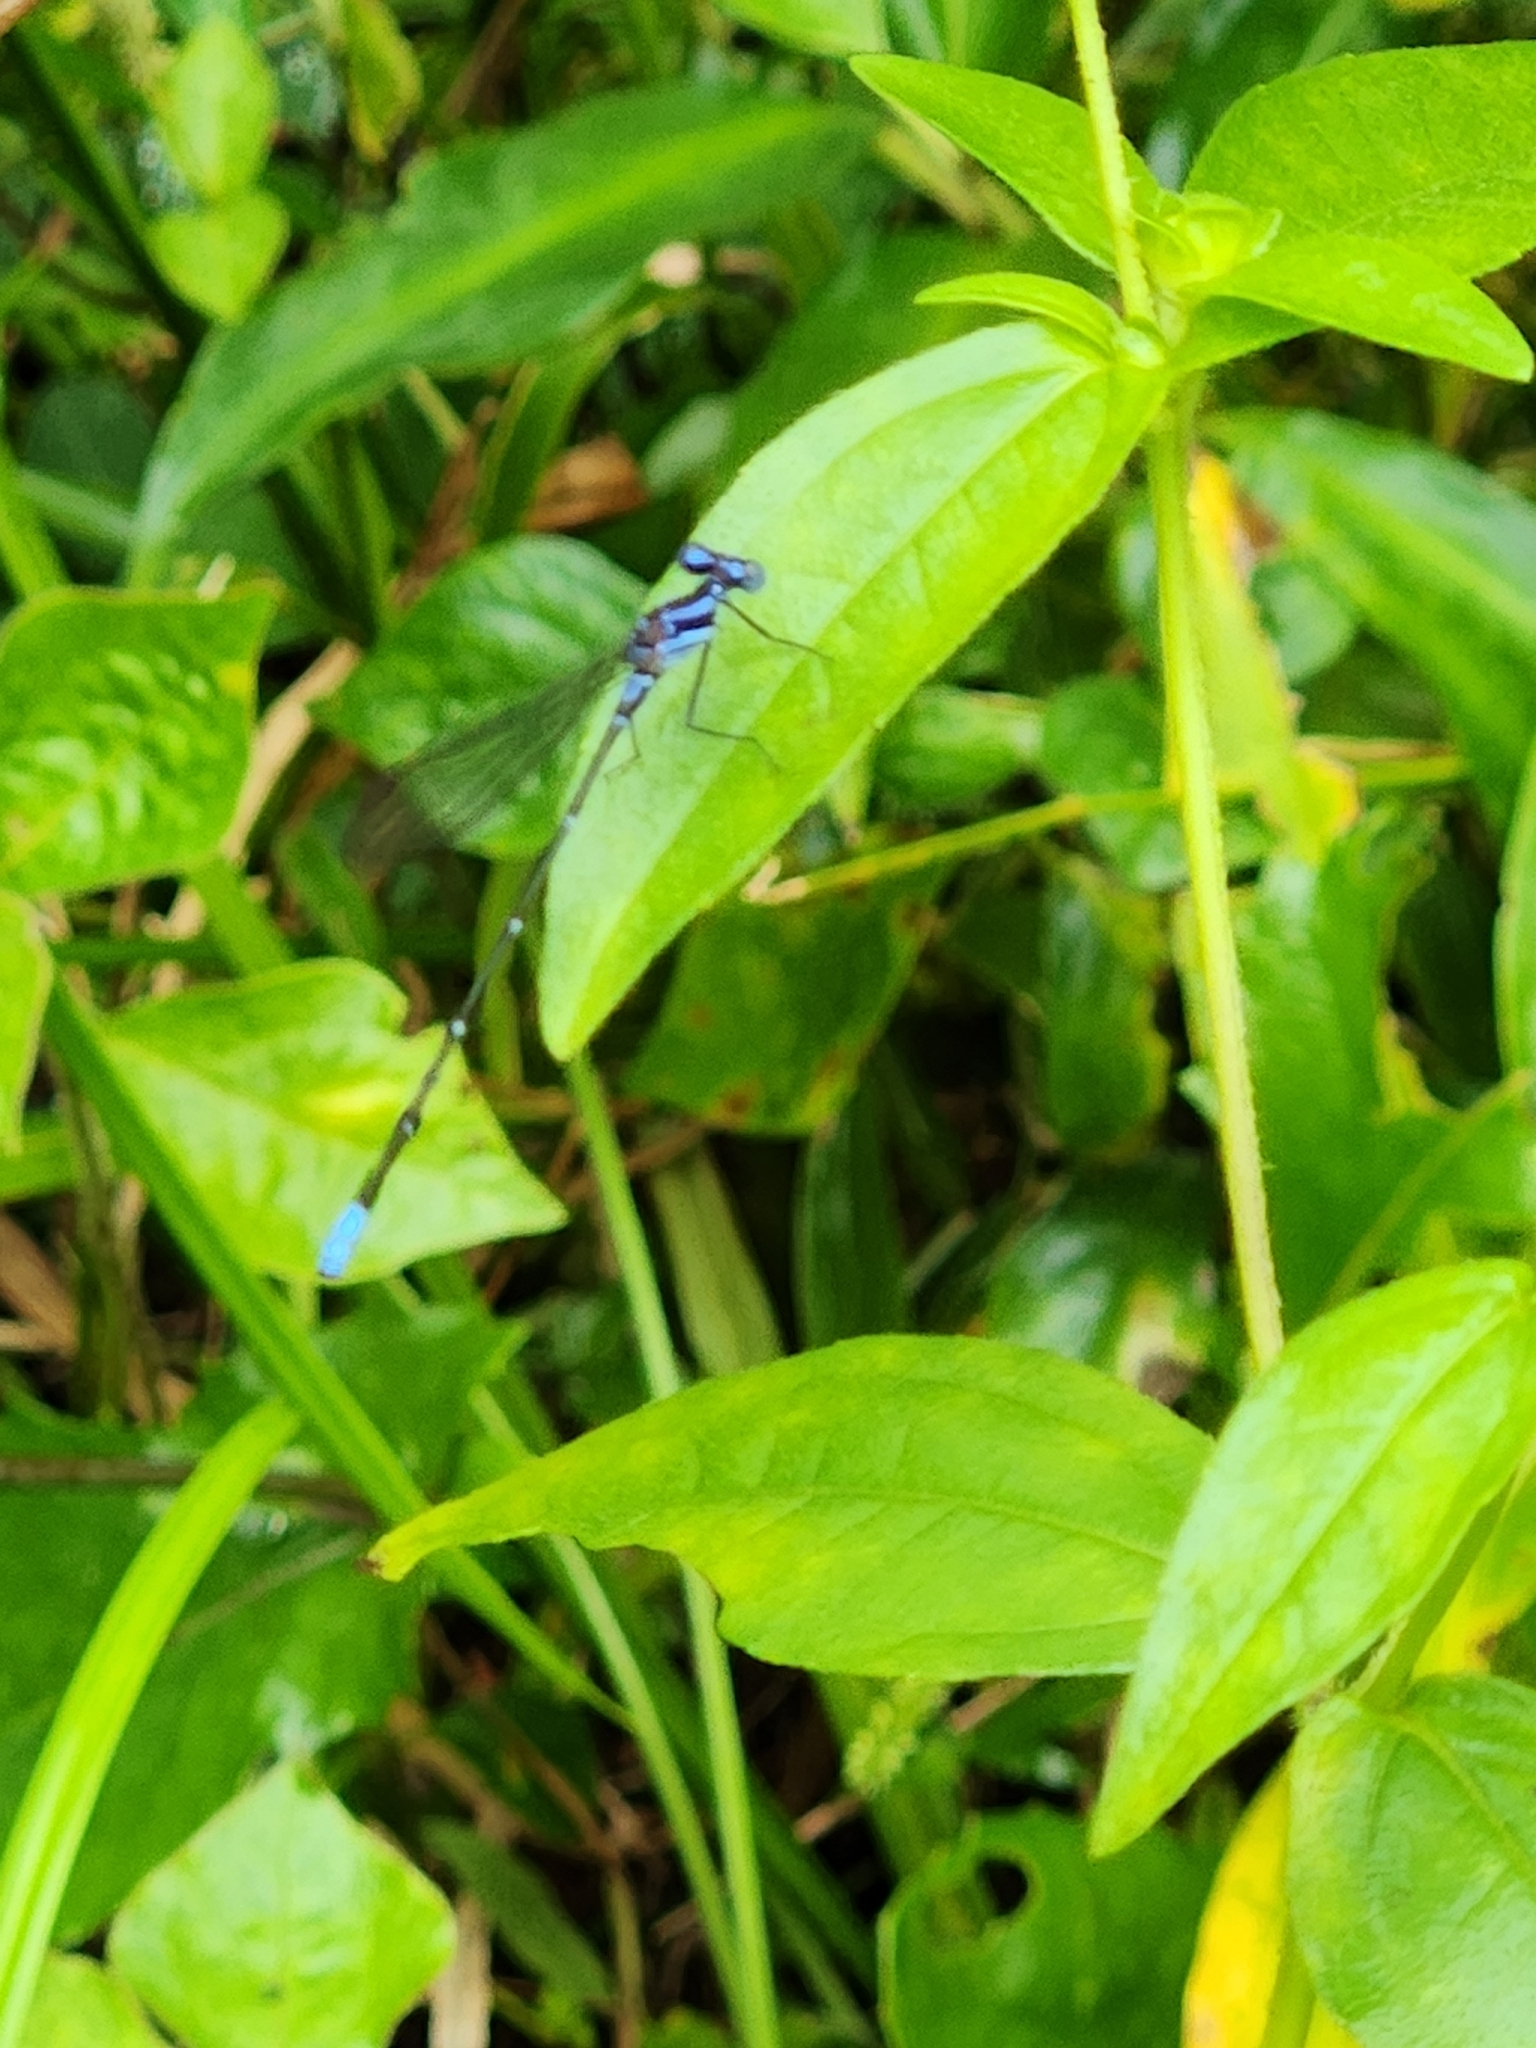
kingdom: Animalia
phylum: Arthropoda
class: Insecta
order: Odonata
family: Coenagrionidae
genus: Argia
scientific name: Argia pulla
